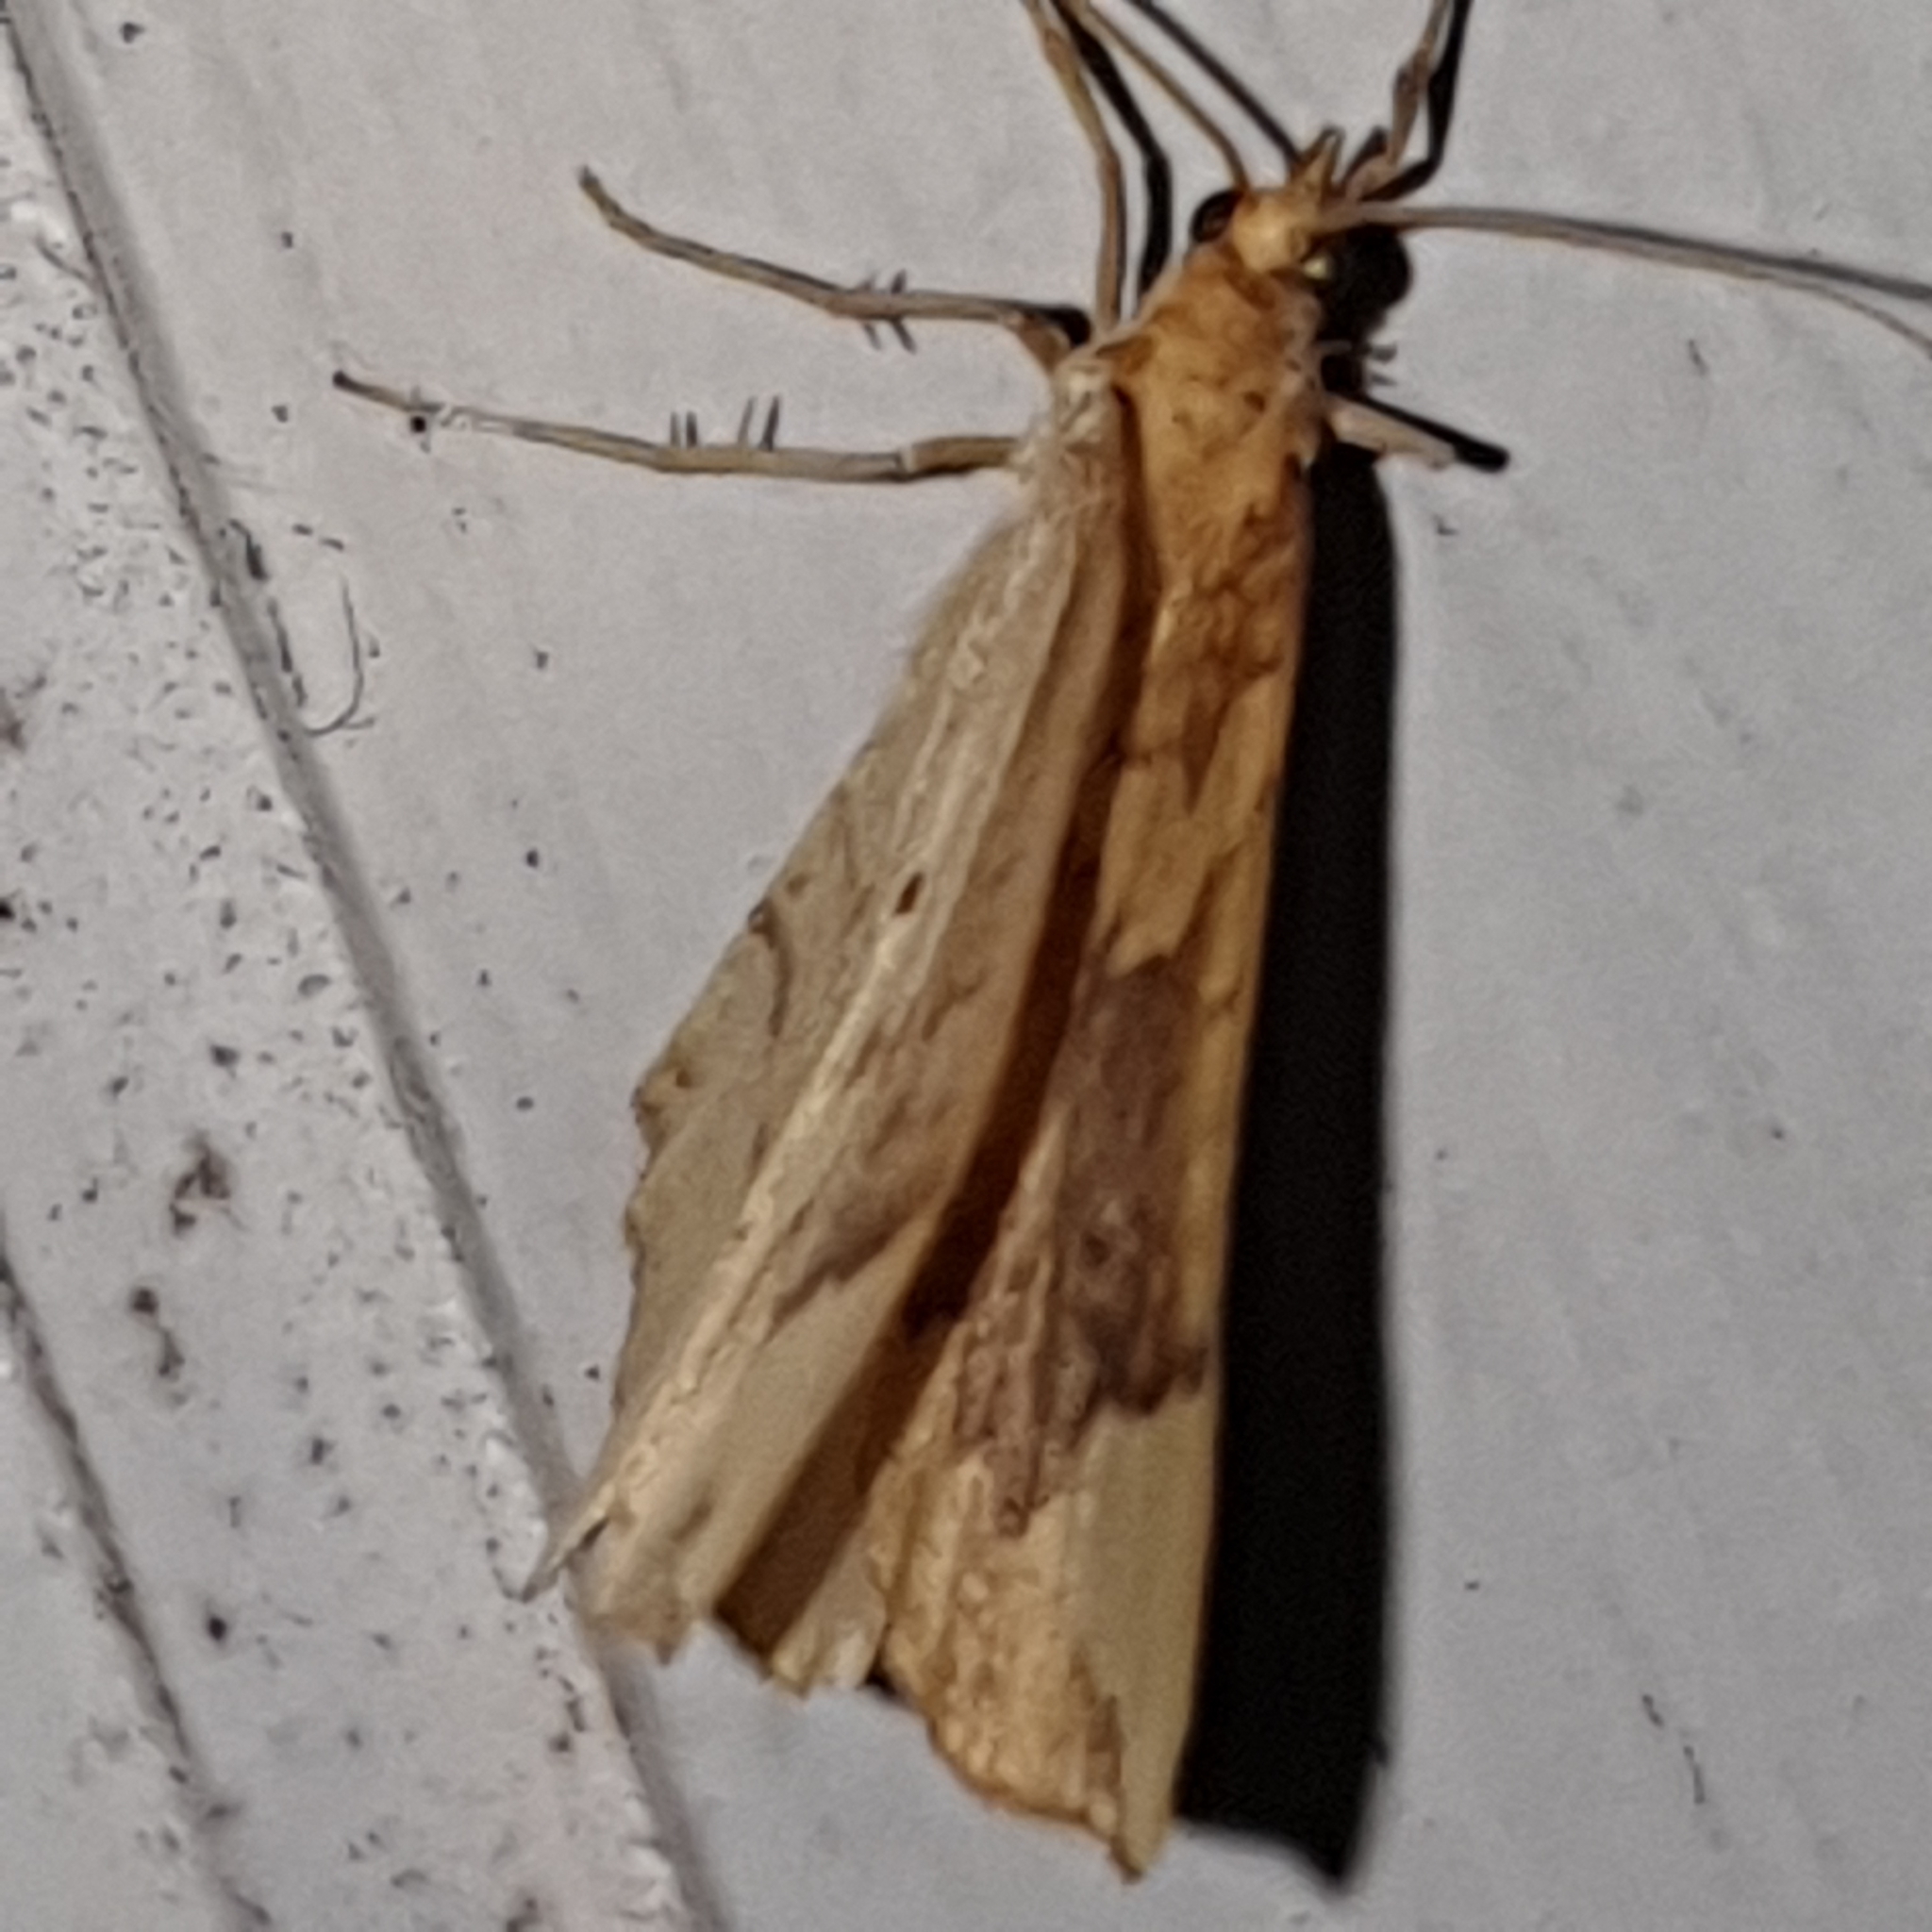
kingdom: Animalia
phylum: Arthropoda
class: Insecta
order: Lepidoptera
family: Geometridae
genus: Eulithis
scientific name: Eulithis populata
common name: Northern spinach
